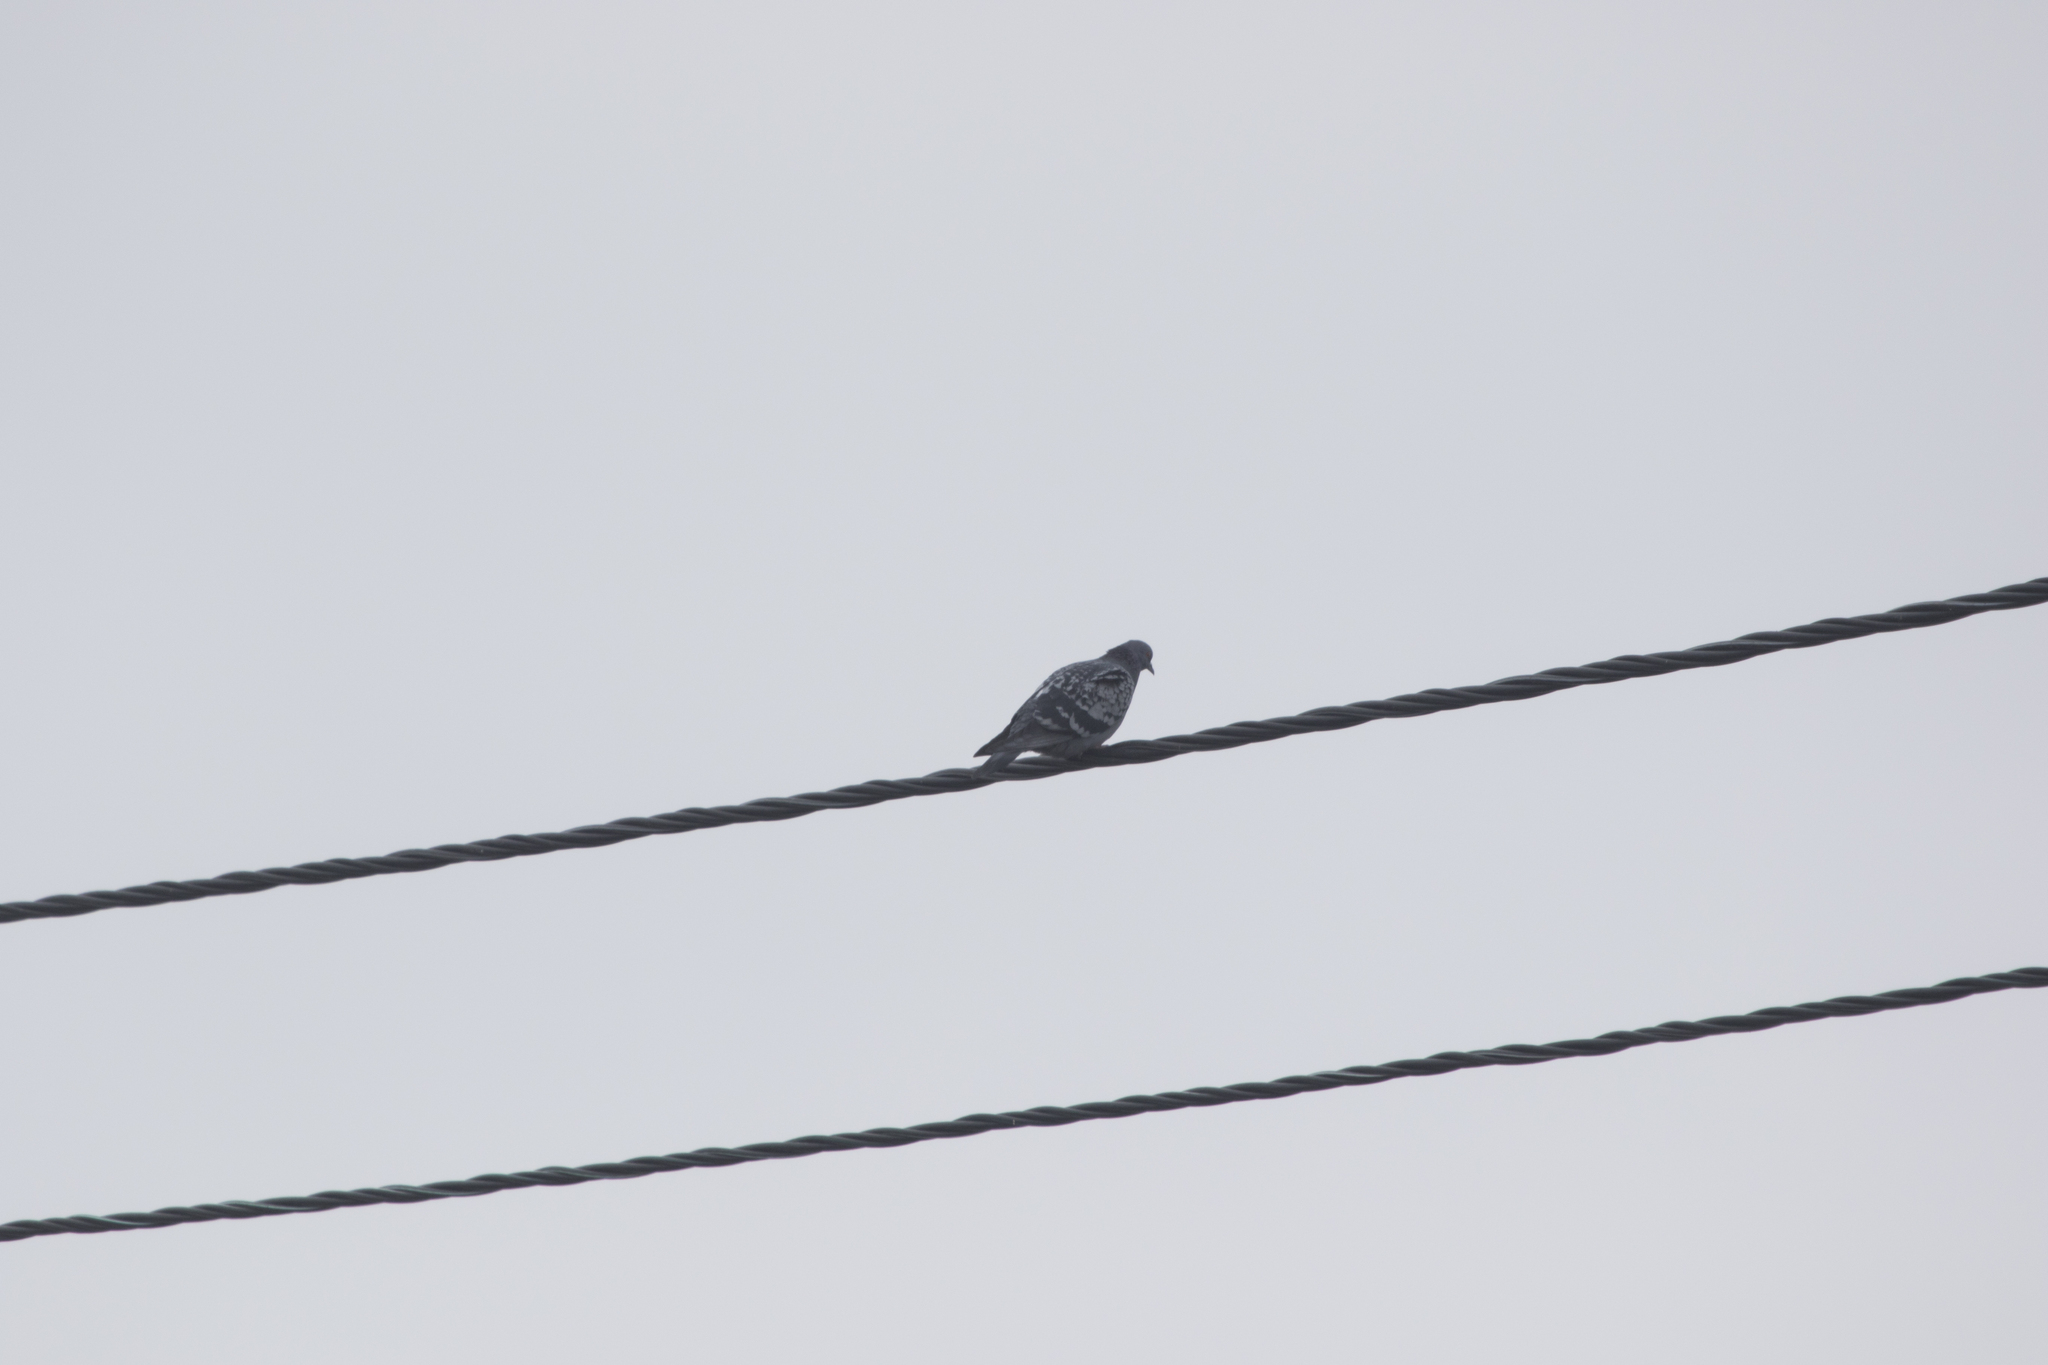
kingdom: Animalia
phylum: Chordata
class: Aves
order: Columbiformes
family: Columbidae
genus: Columba
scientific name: Columba livia
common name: Rock pigeon
